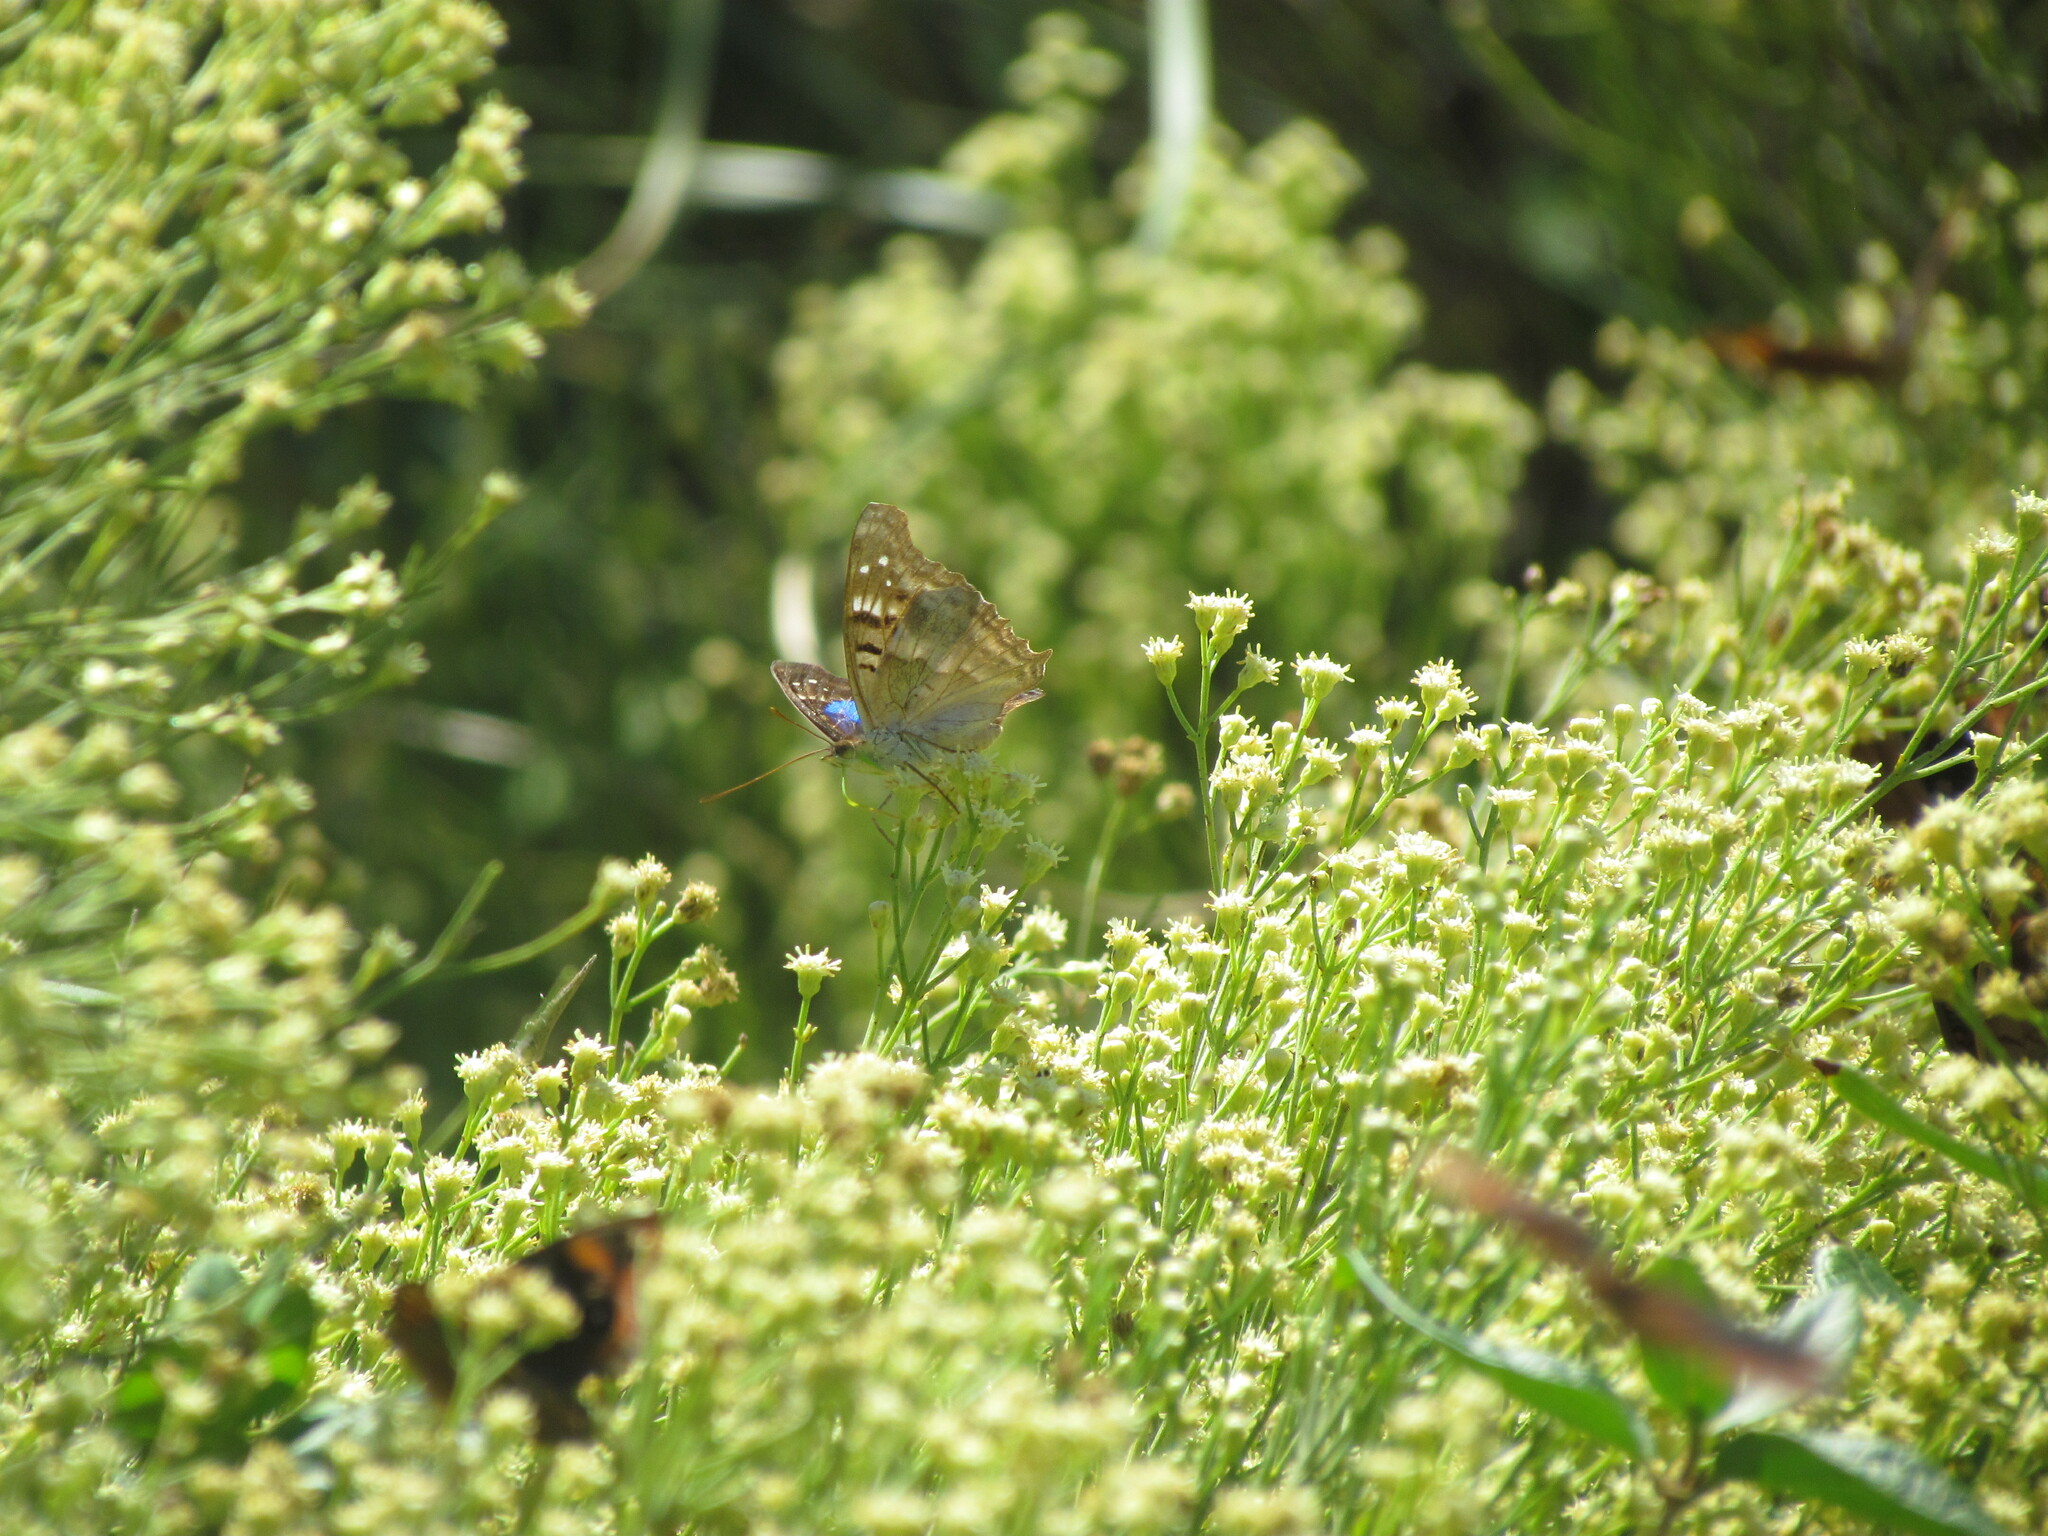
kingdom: Animalia
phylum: Arthropoda
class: Insecta
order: Lepidoptera
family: Nymphalidae
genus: Doxocopa
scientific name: Doxocopa laurentia
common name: Turquoise emperor
